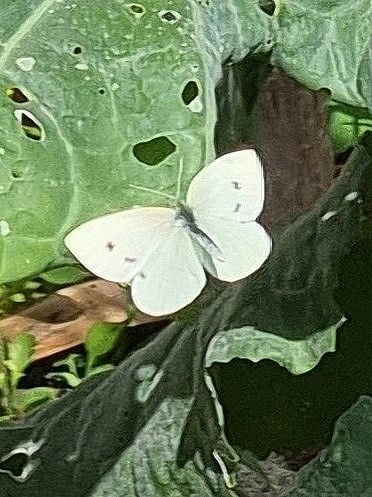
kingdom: Animalia
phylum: Arthropoda
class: Insecta
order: Lepidoptera
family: Pieridae
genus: Pieris
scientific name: Pieris rapae
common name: Small white
